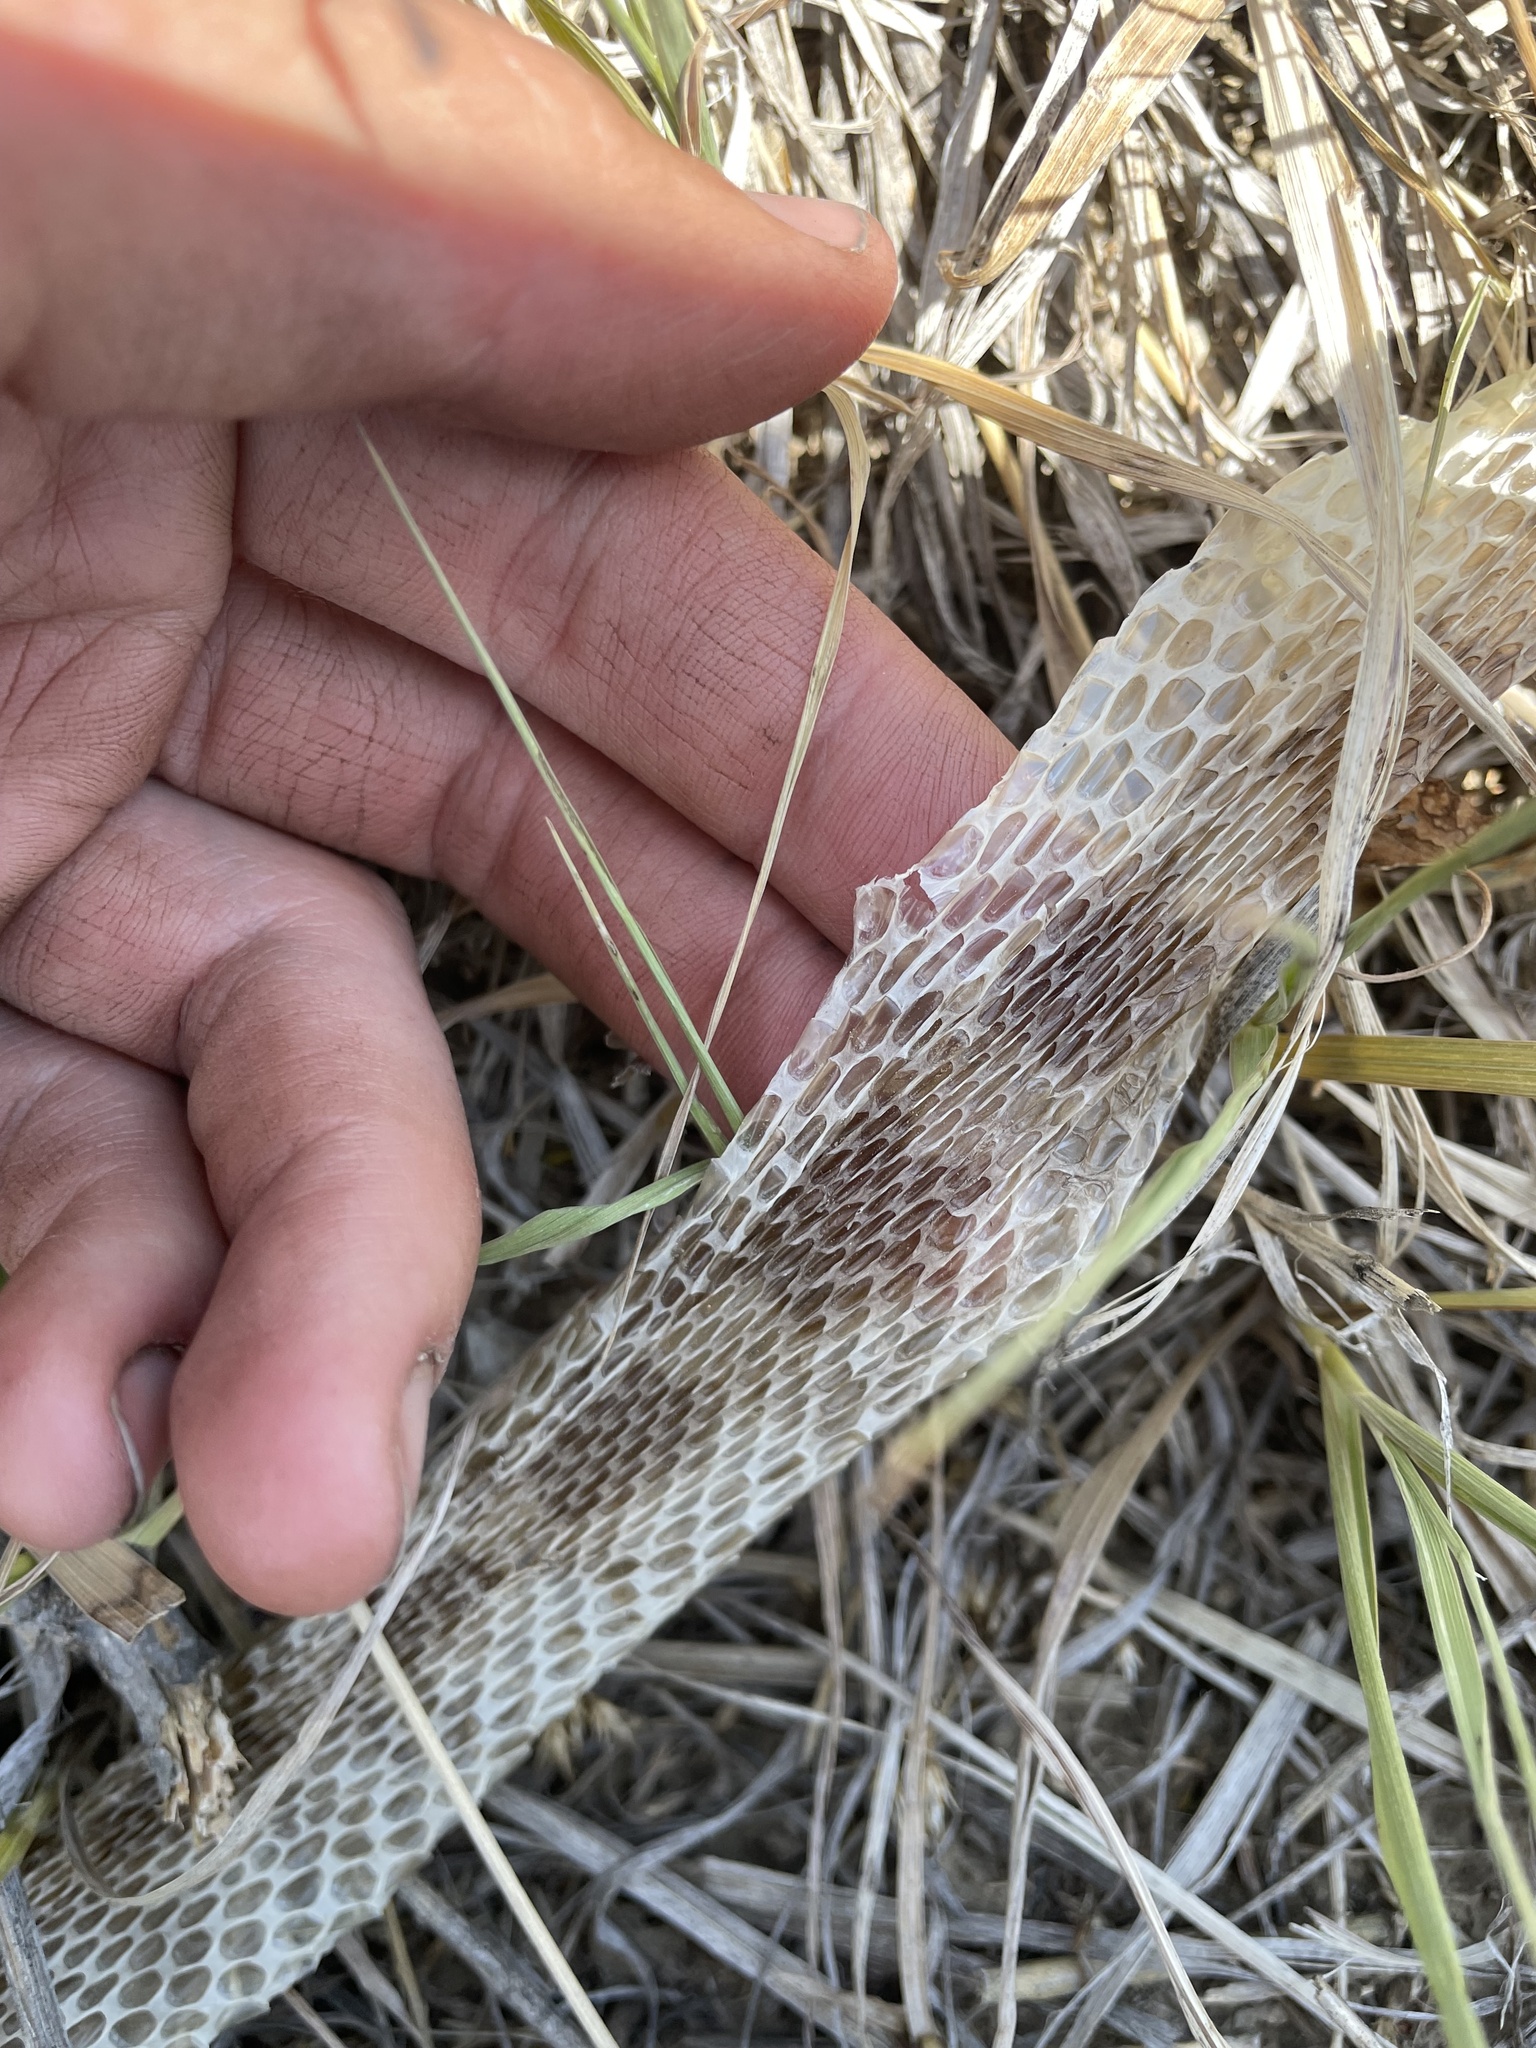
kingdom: Animalia
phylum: Chordata
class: Squamata
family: Colubridae
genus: Pituophis
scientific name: Pituophis catenifer
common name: Gopher snake
